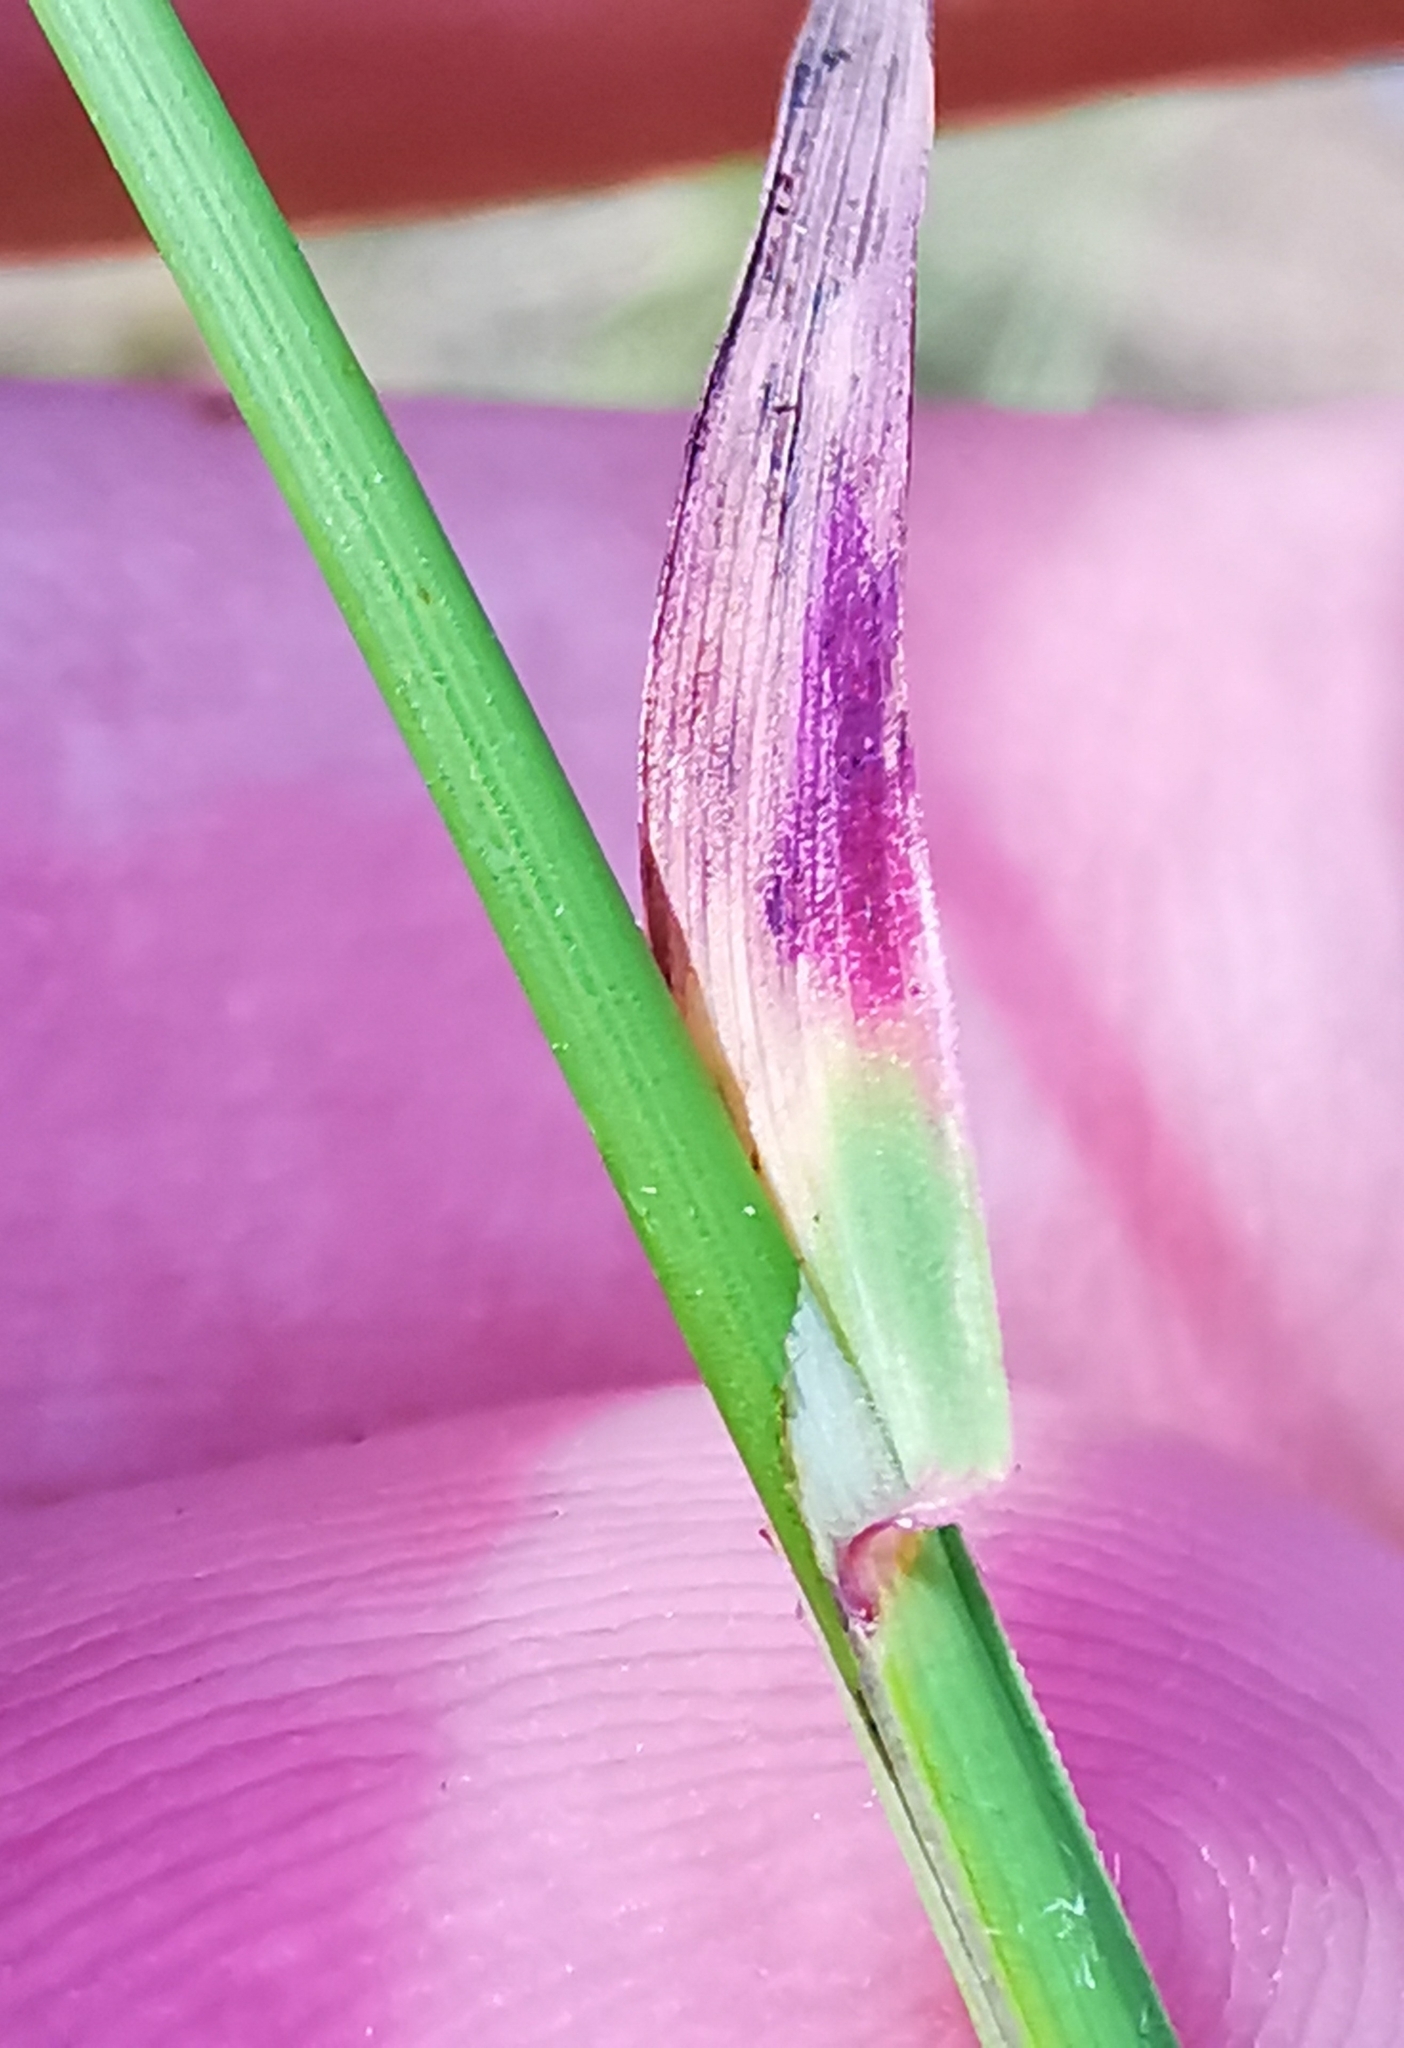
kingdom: Plantae
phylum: Tracheophyta
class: Liliopsida
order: Poales
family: Poaceae
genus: Poa
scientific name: Poa compressa
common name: Canada bluegrass
